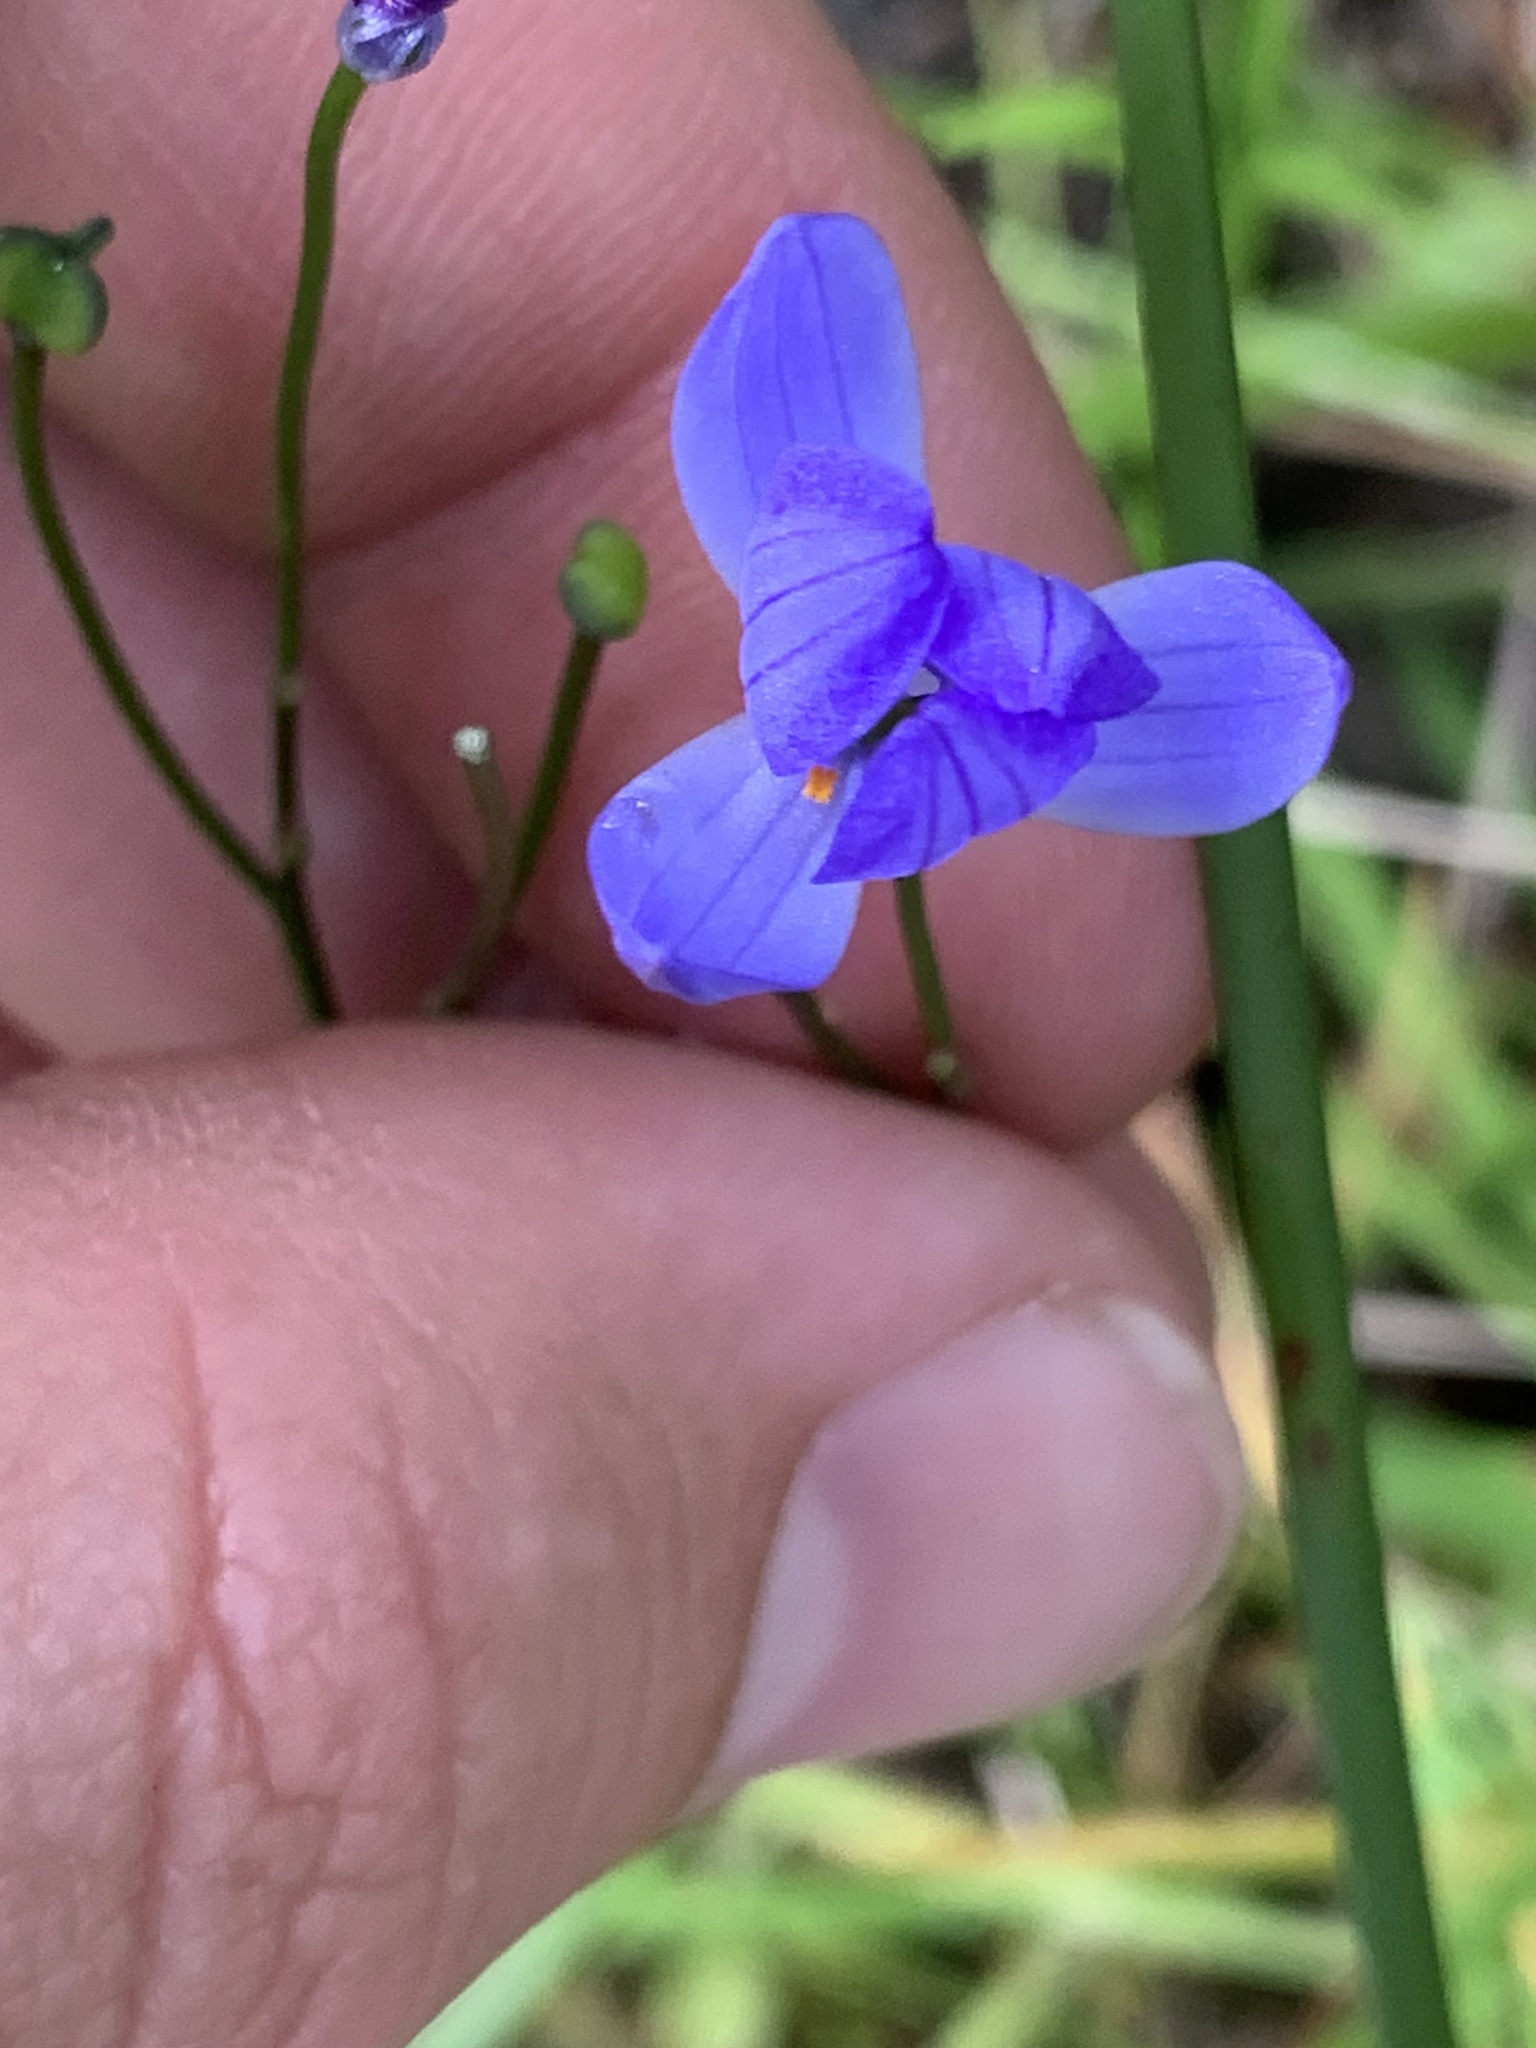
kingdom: Plantae
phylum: Tracheophyta
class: Liliopsida
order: Asparagales
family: Asphodelaceae
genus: Chamaescilla
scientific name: Chamaescilla corymbosa
